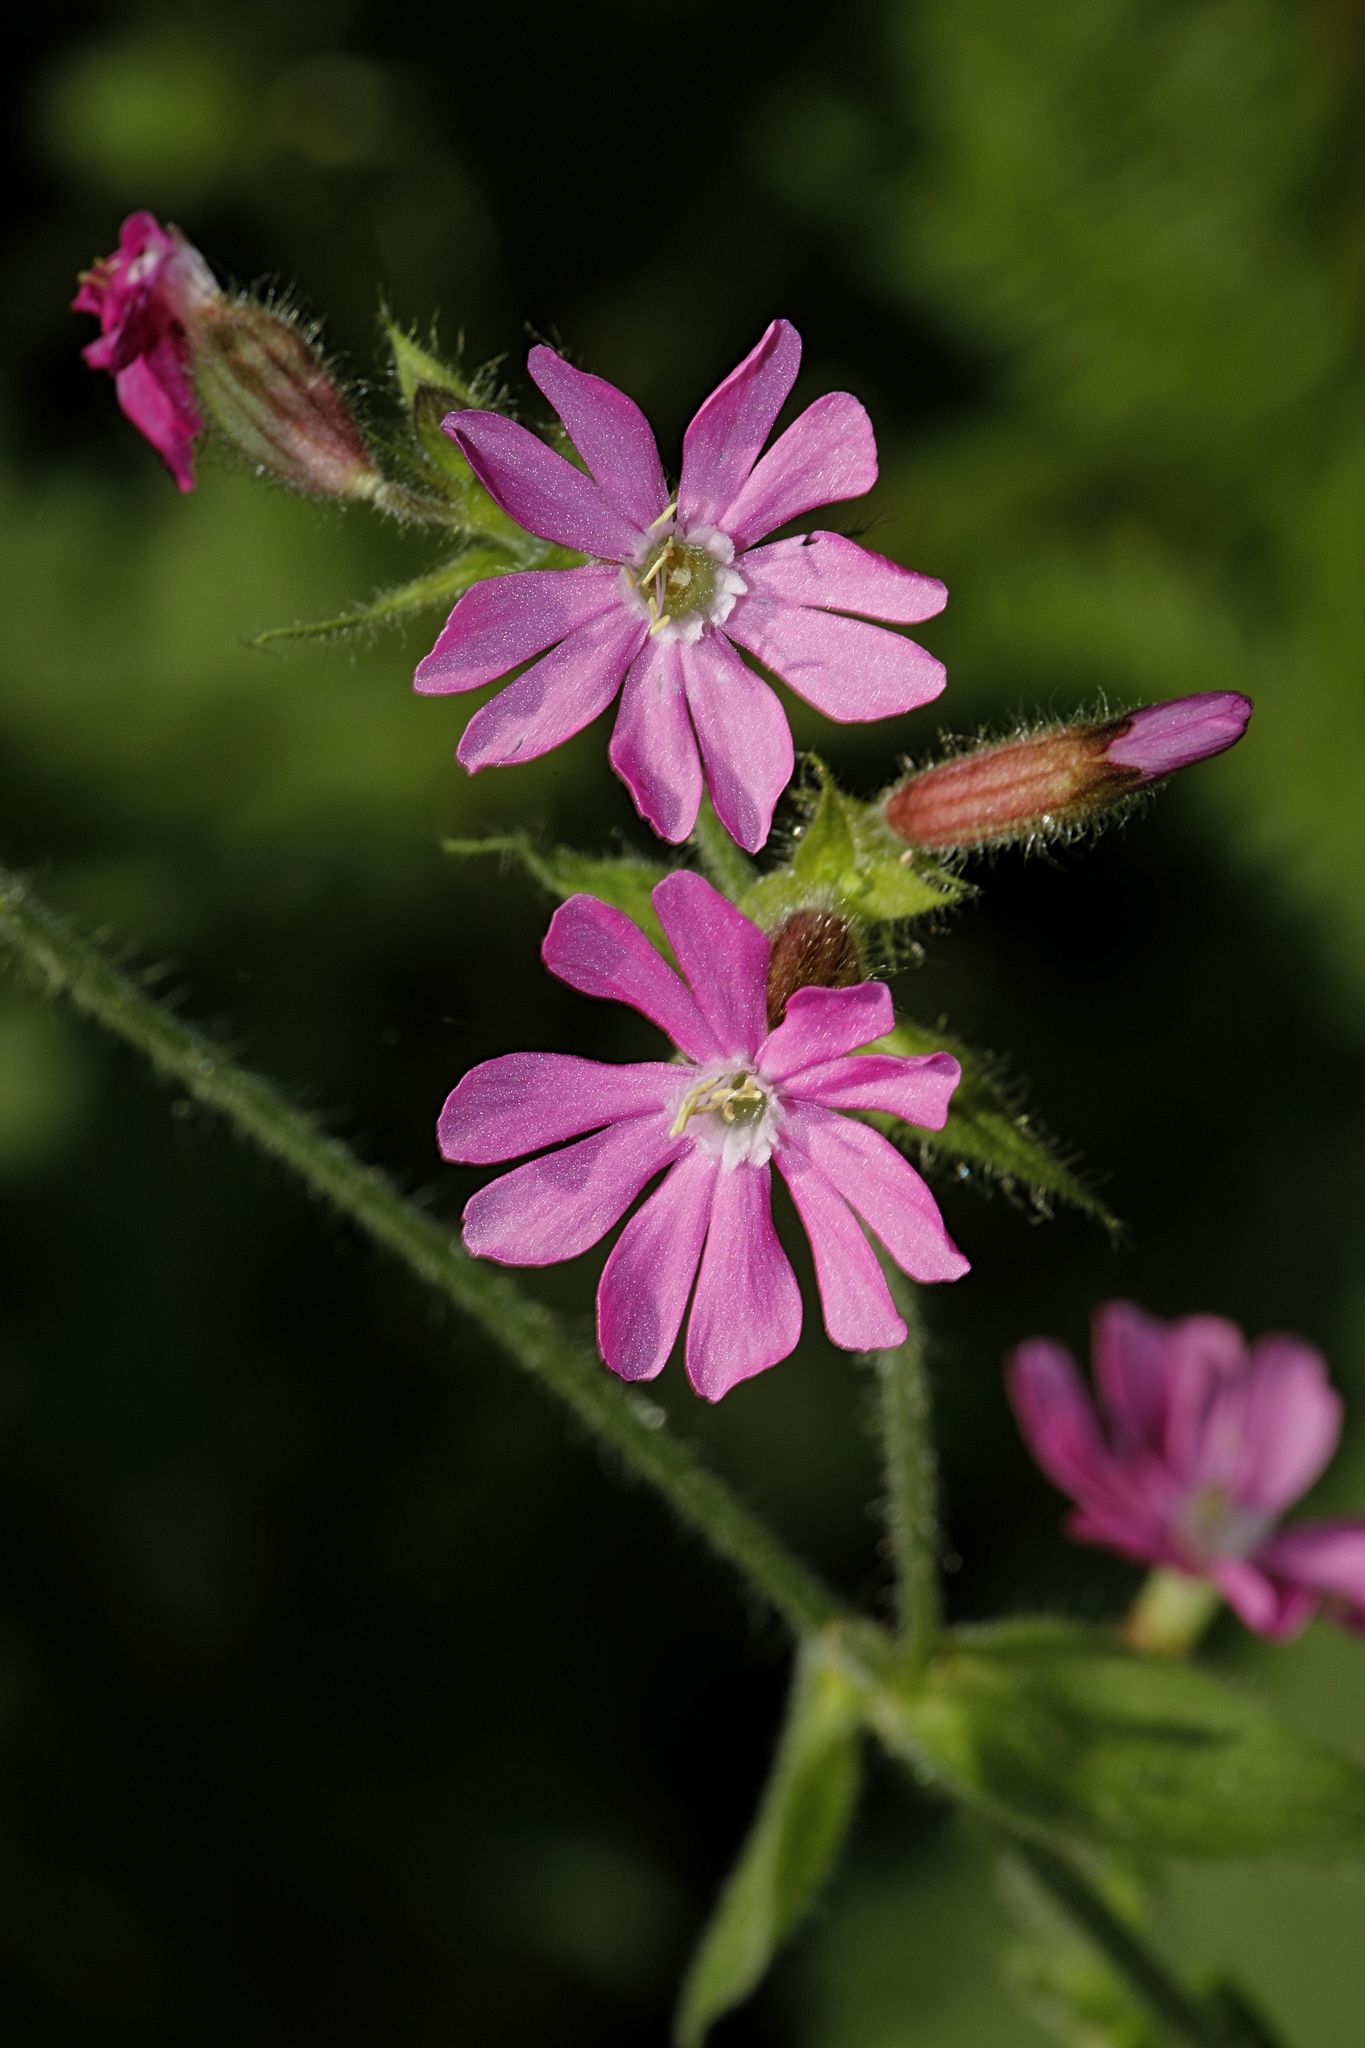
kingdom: Plantae
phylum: Tracheophyta
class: Magnoliopsida
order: Caryophyllales
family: Caryophyllaceae
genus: Silene
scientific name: Silene dioica
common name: Red campion
